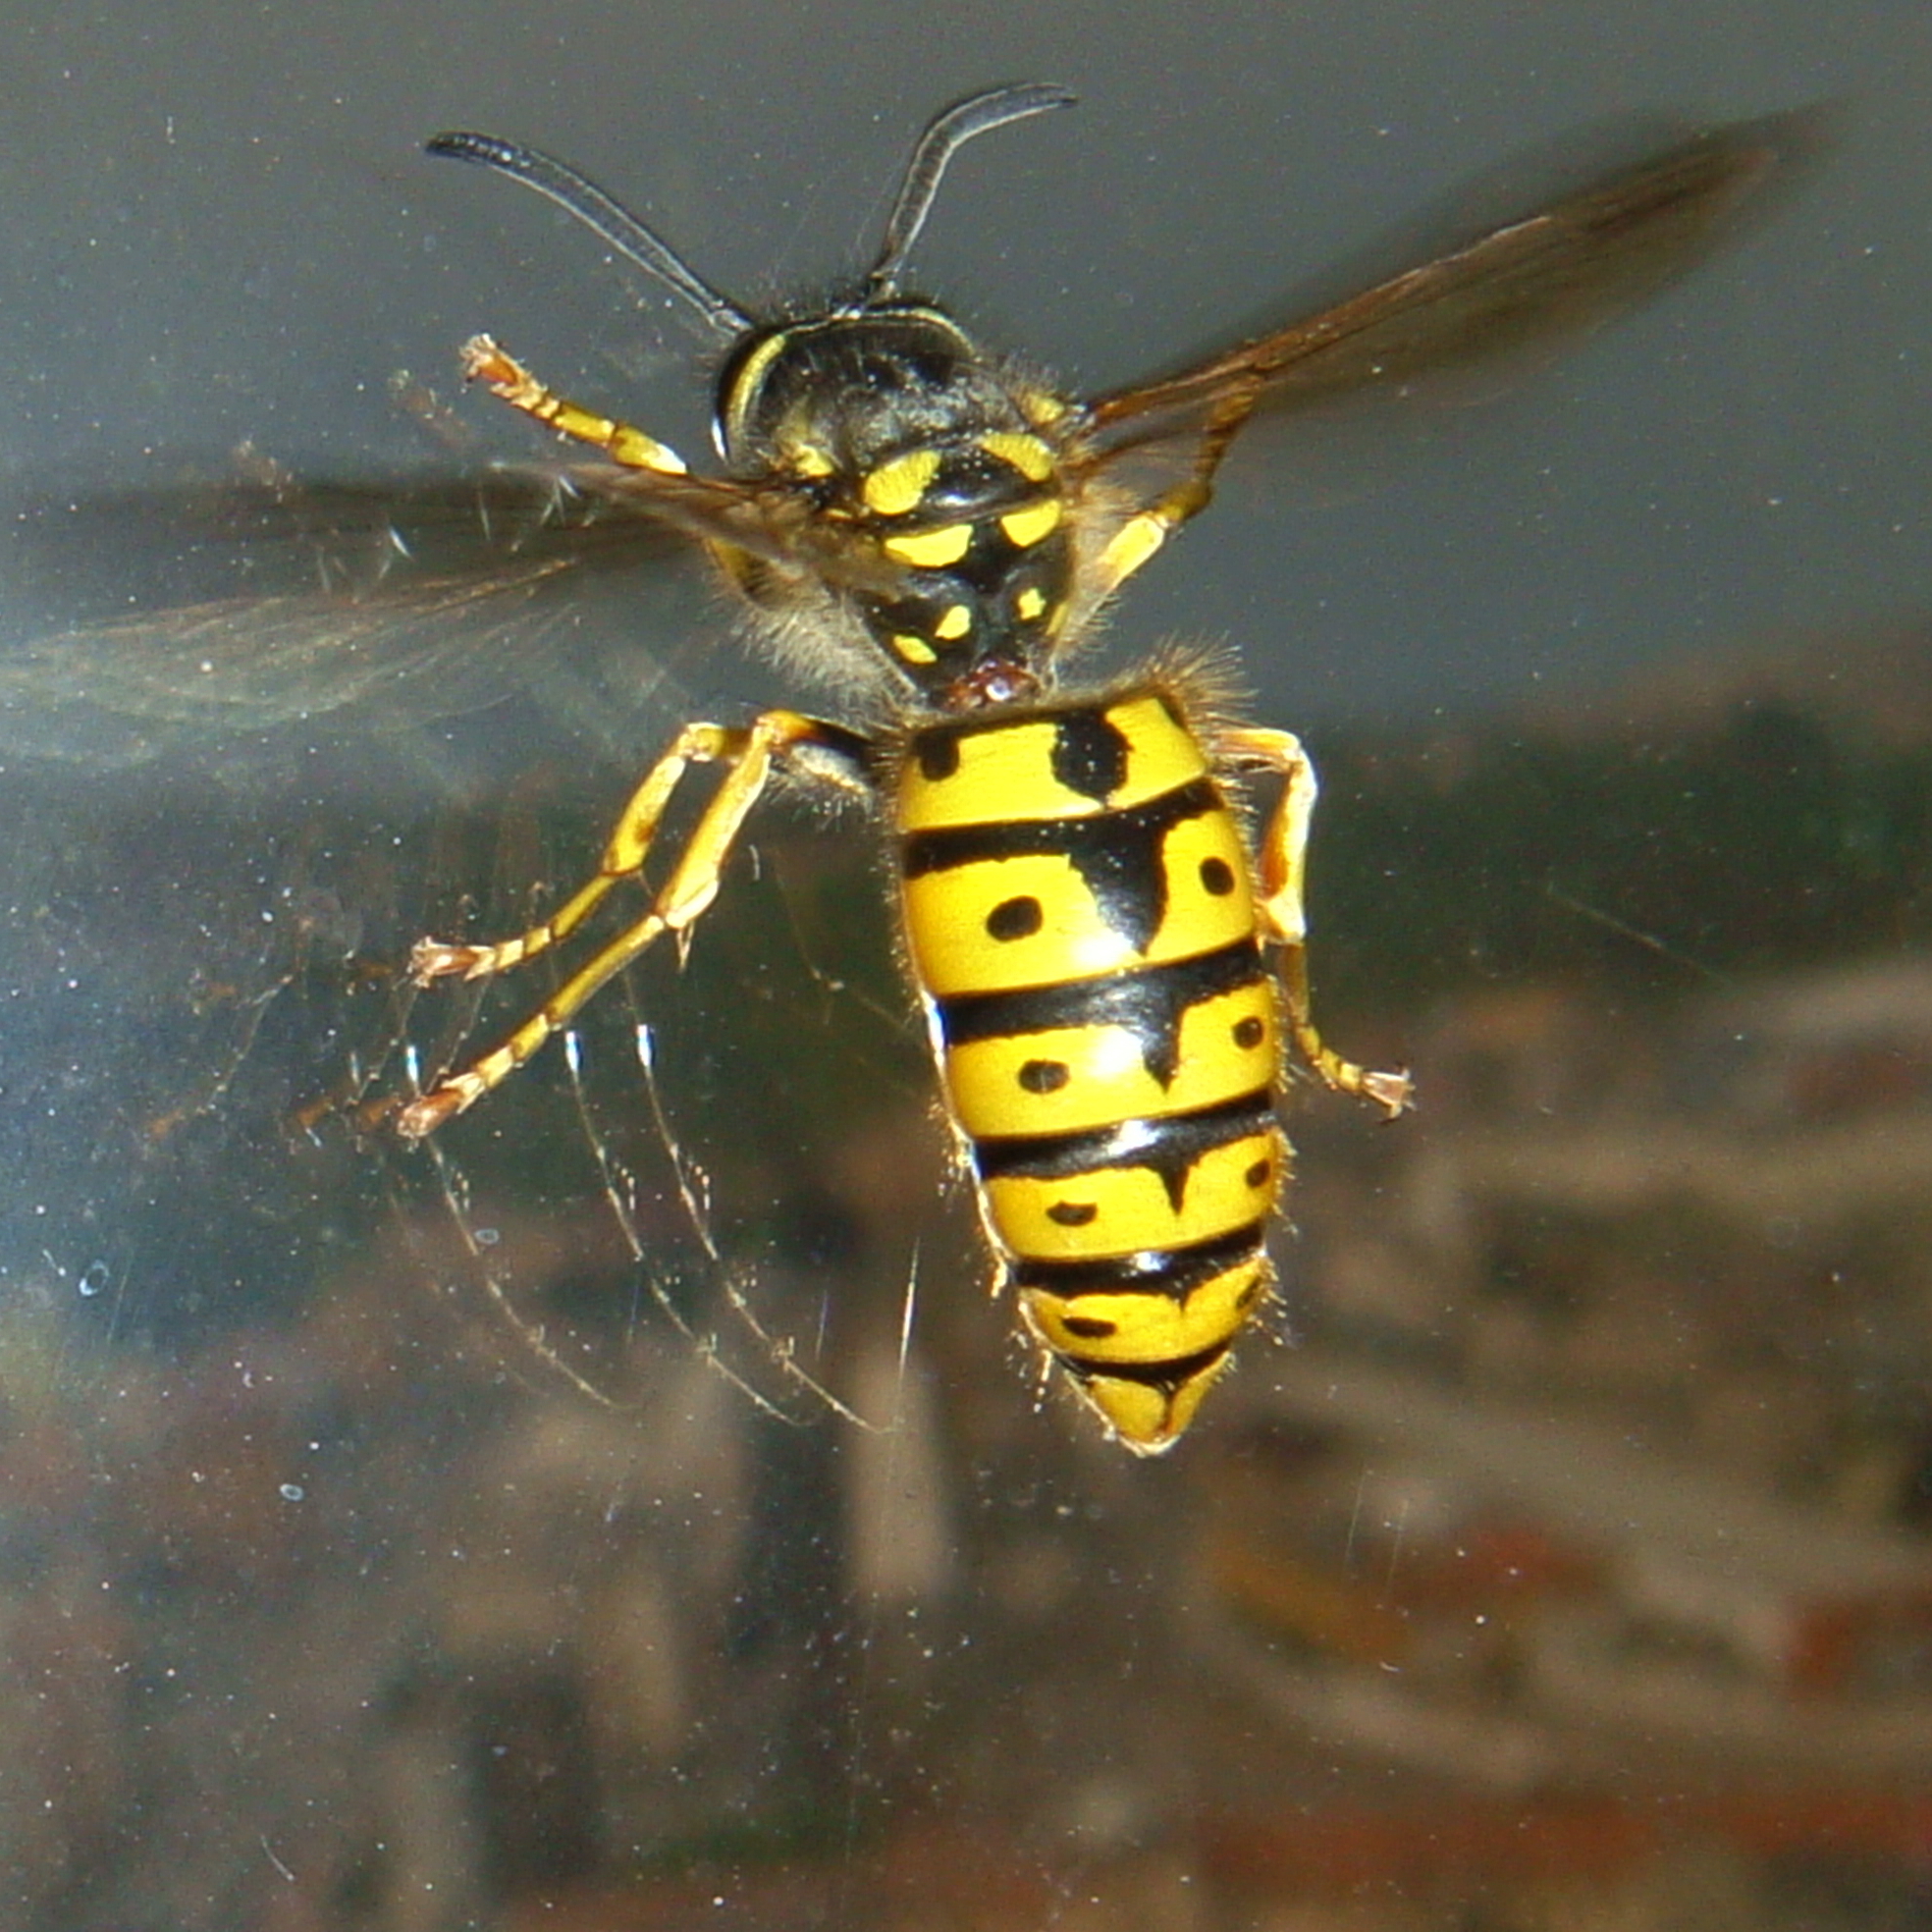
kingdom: Animalia
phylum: Arthropoda
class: Insecta
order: Hymenoptera
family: Vespidae
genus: Vespula
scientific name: Vespula germanica
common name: German wasp
